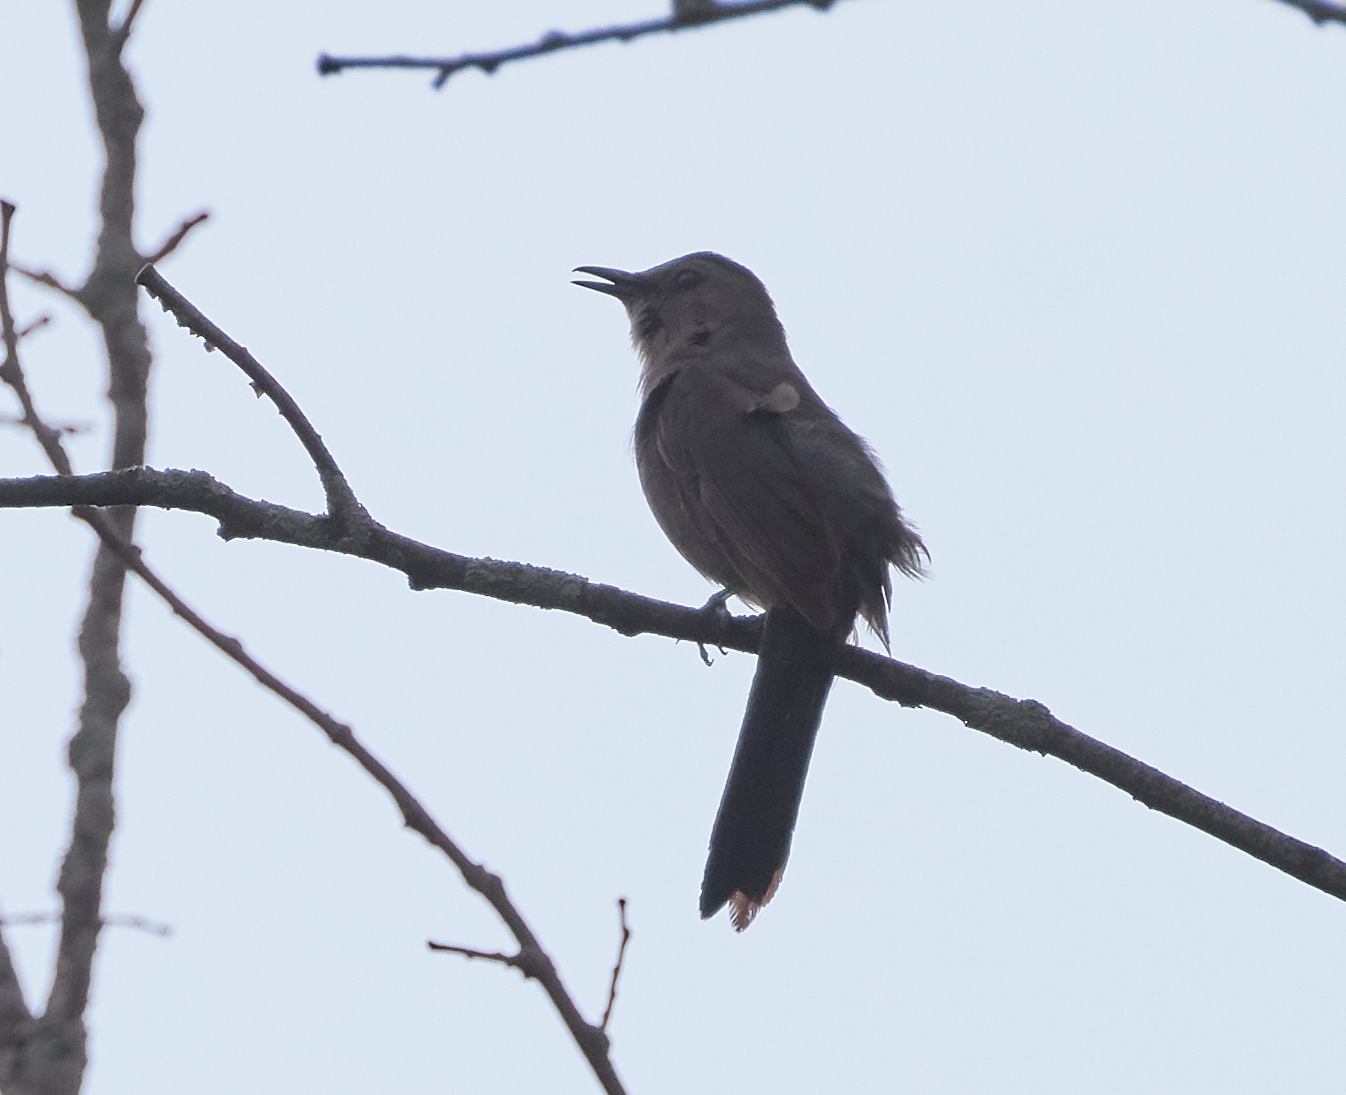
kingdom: Animalia
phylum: Chordata
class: Aves
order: Passeriformes
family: Mimidae
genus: Dumetella
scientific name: Dumetella carolinensis
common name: Gray catbird
